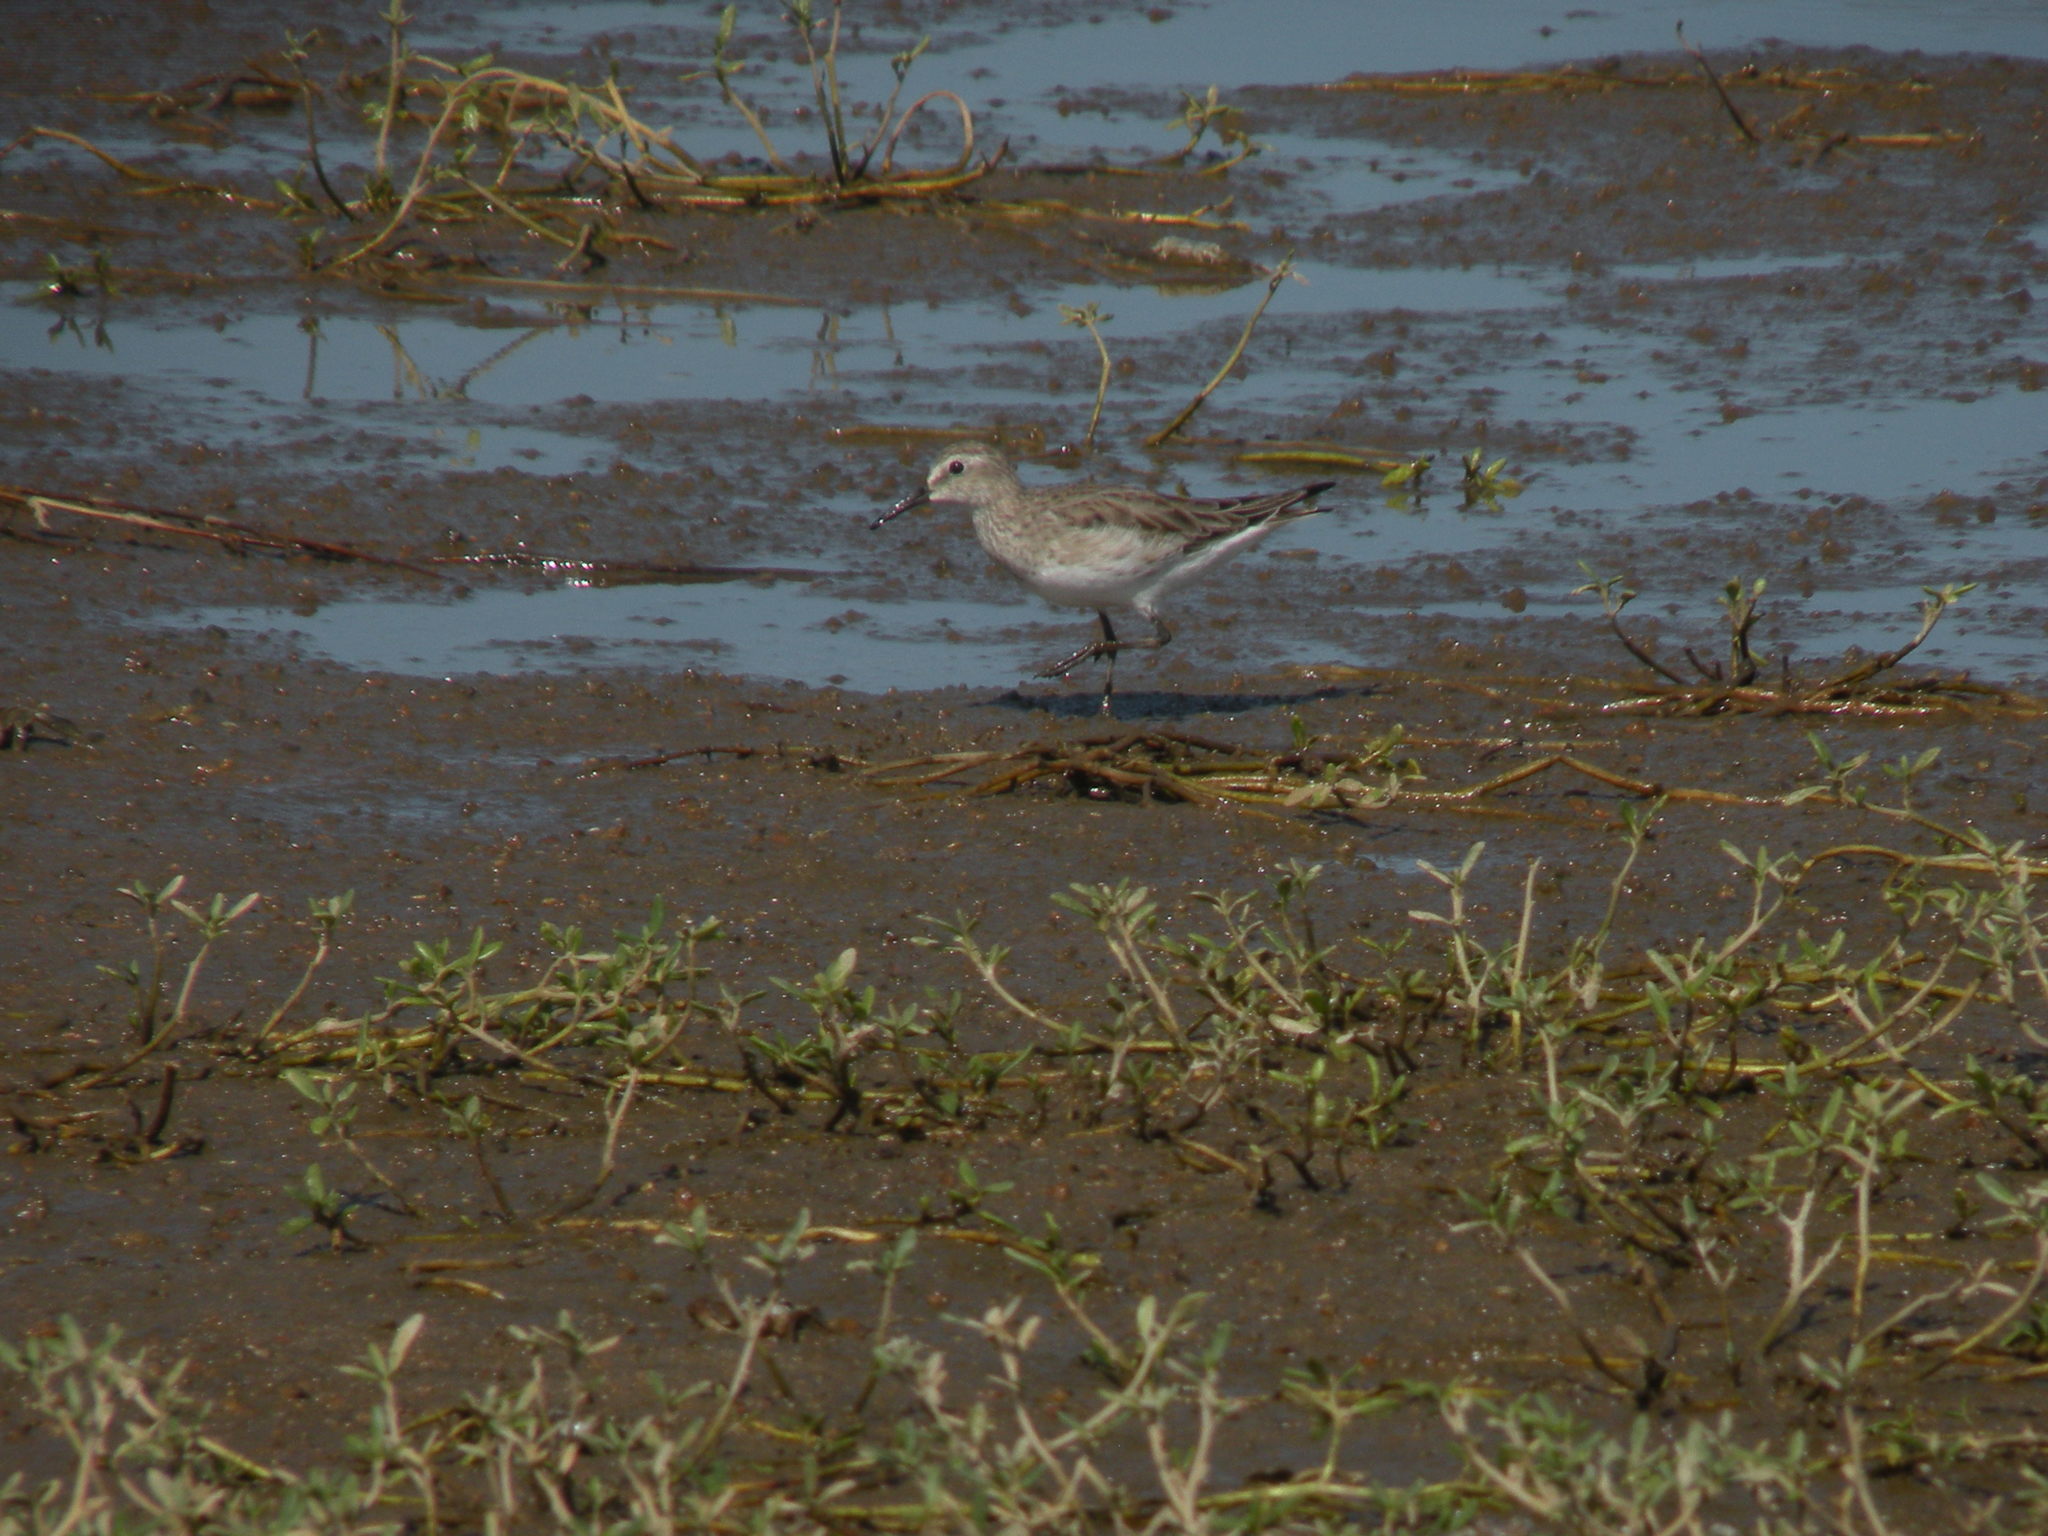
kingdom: Animalia
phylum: Chordata
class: Aves
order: Charadriiformes
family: Scolopacidae
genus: Calidris
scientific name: Calidris fuscicollis
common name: White-rumped sandpiper
